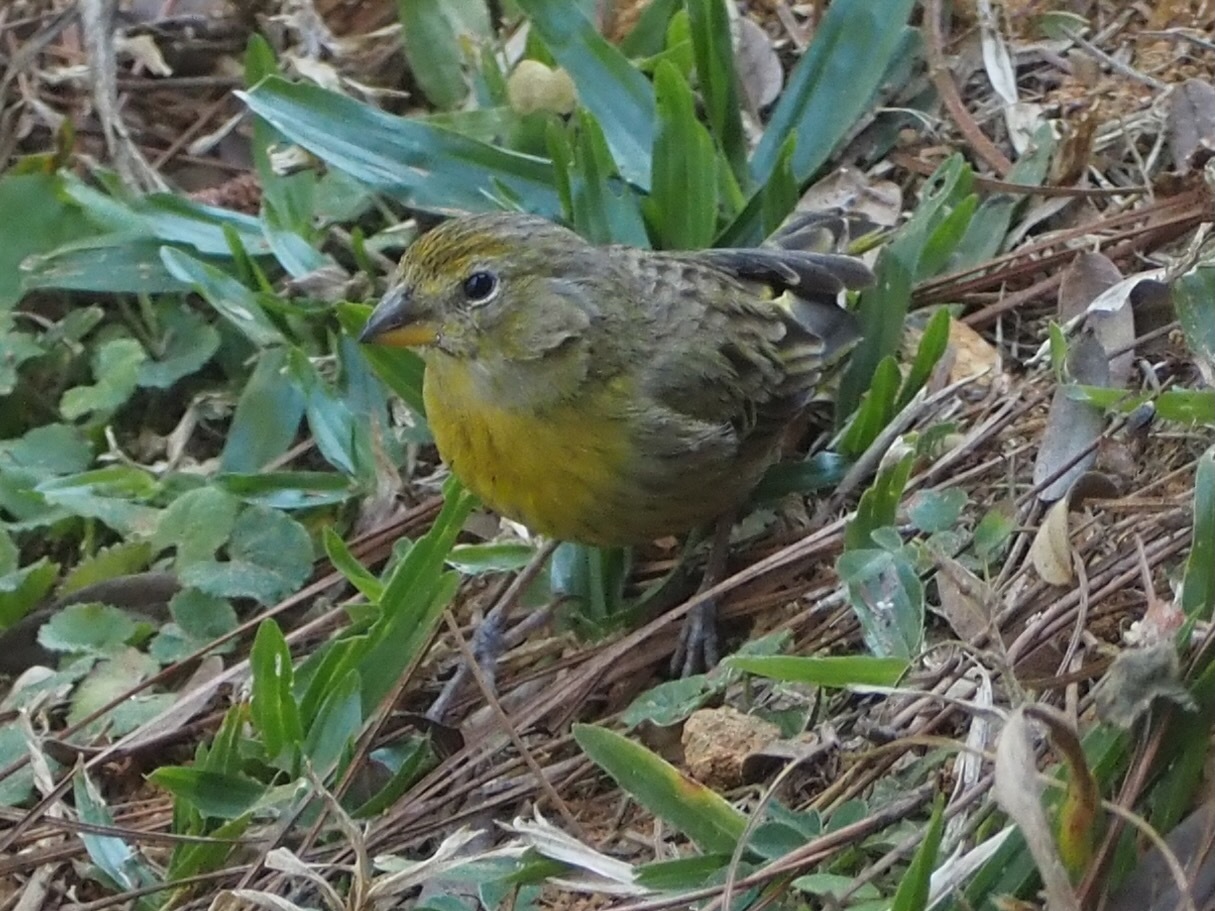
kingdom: Animalia
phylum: Chordata
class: Aves
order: Passeriformes
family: Thraupidae
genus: Sicalis
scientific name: Sicalis flaveola
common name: Saffron finch
